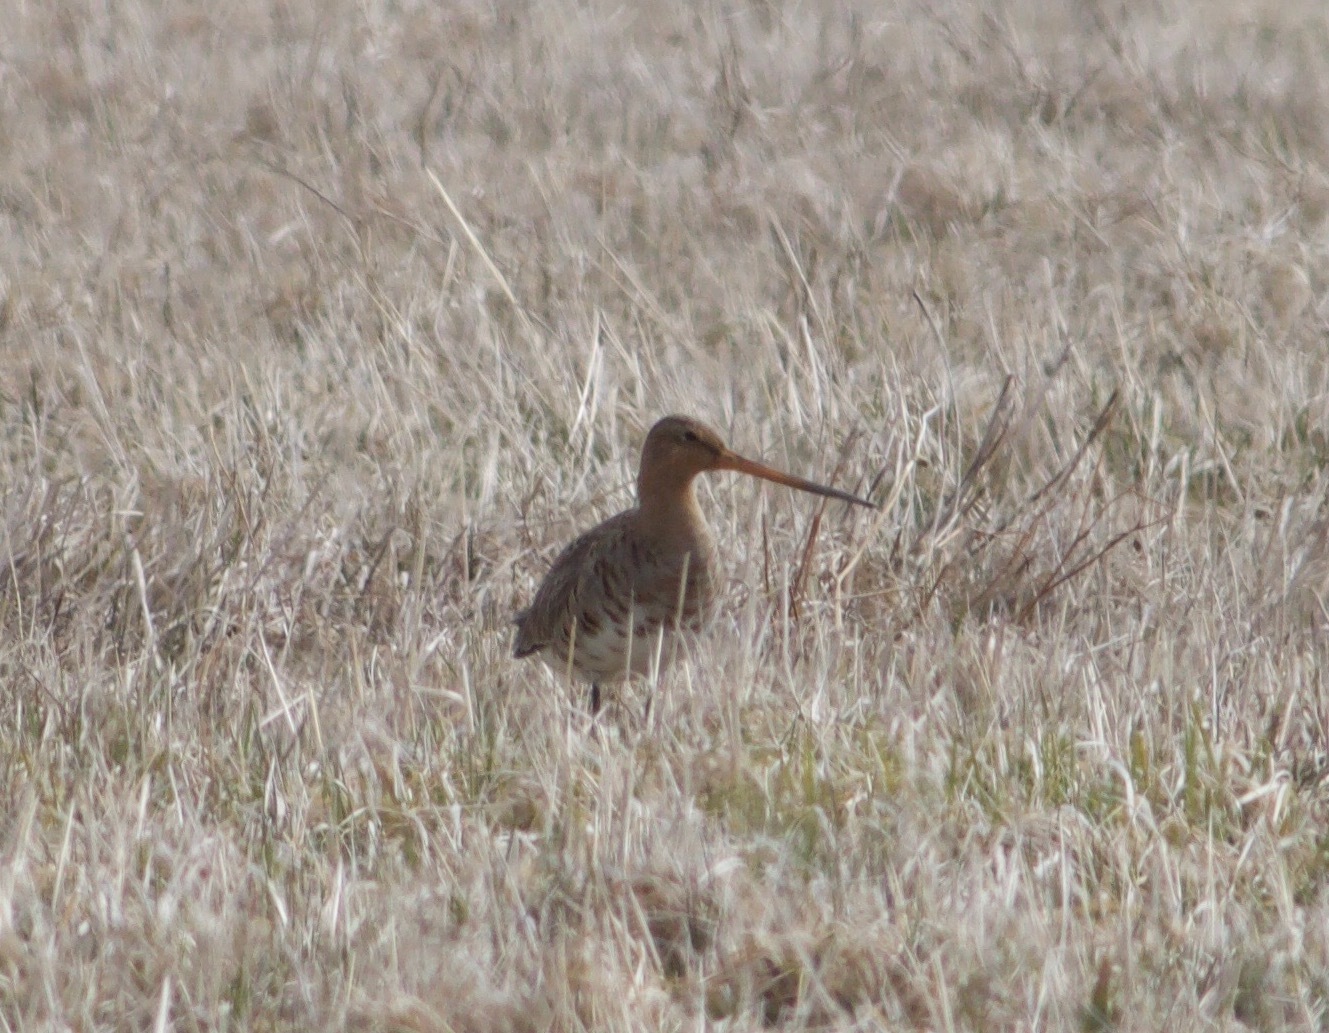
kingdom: Animalia
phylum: Chordata
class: Aves
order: Charadriiformes
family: Scolopacidae
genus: Limosa
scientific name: Limosa limosa
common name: Black-tailed godwit
